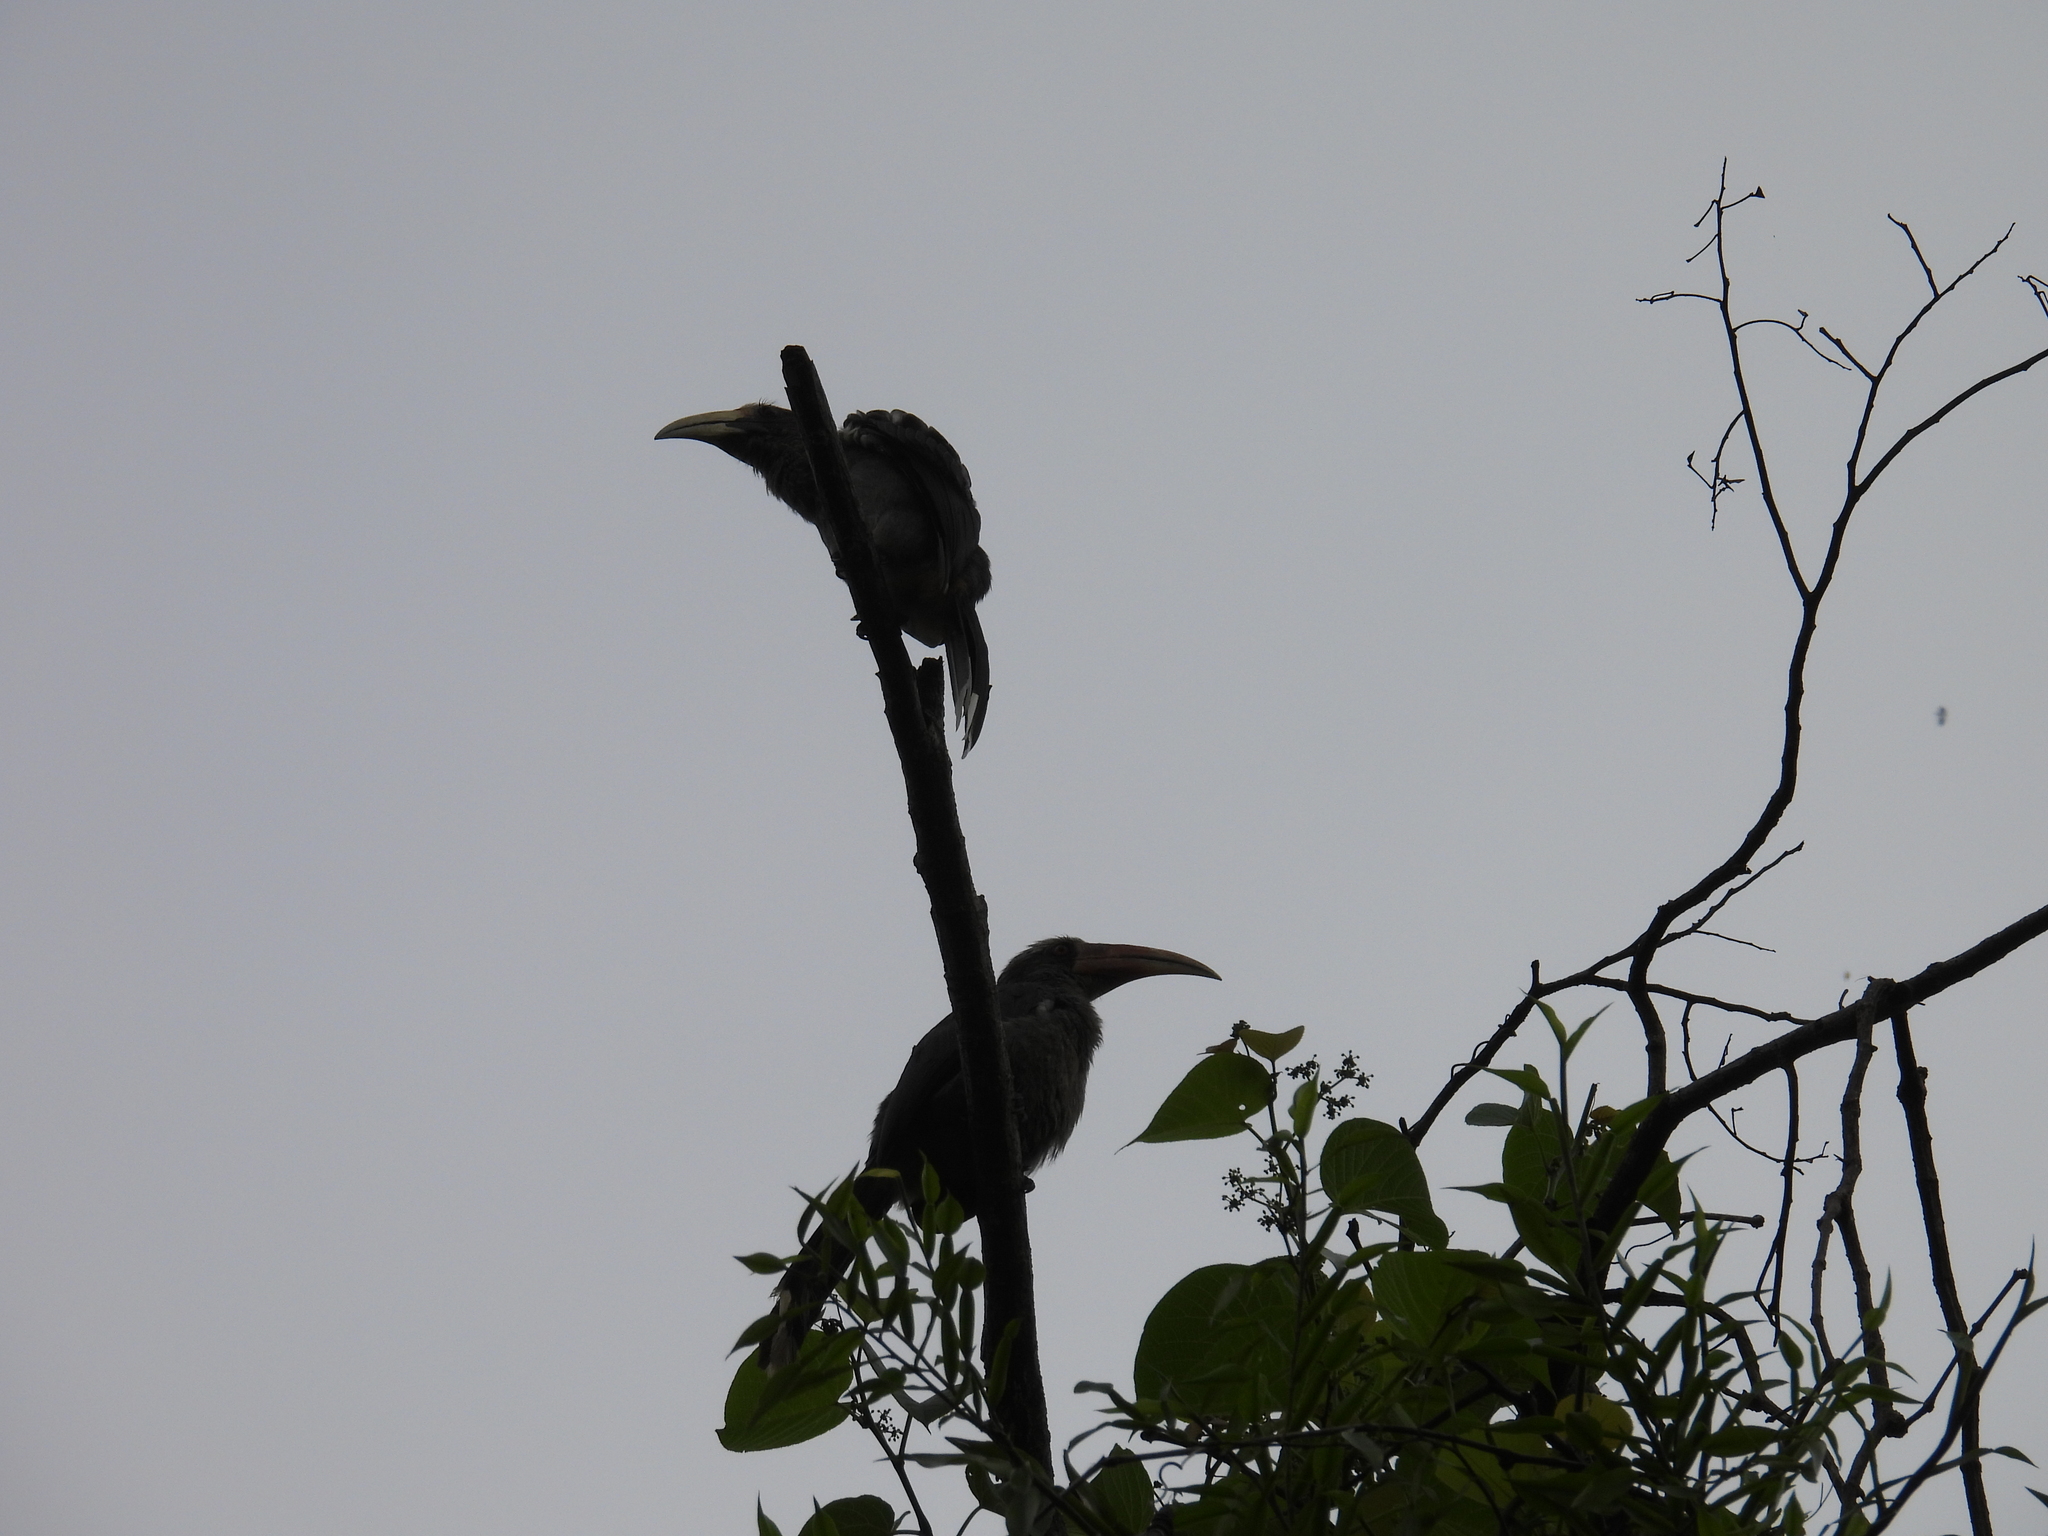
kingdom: Animalia
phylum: Chordata
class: Aves
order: Bucerotiformes
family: Bucerotidae
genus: Ocyceros
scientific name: Ocyceros griseus
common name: Malabar grey hornbill
